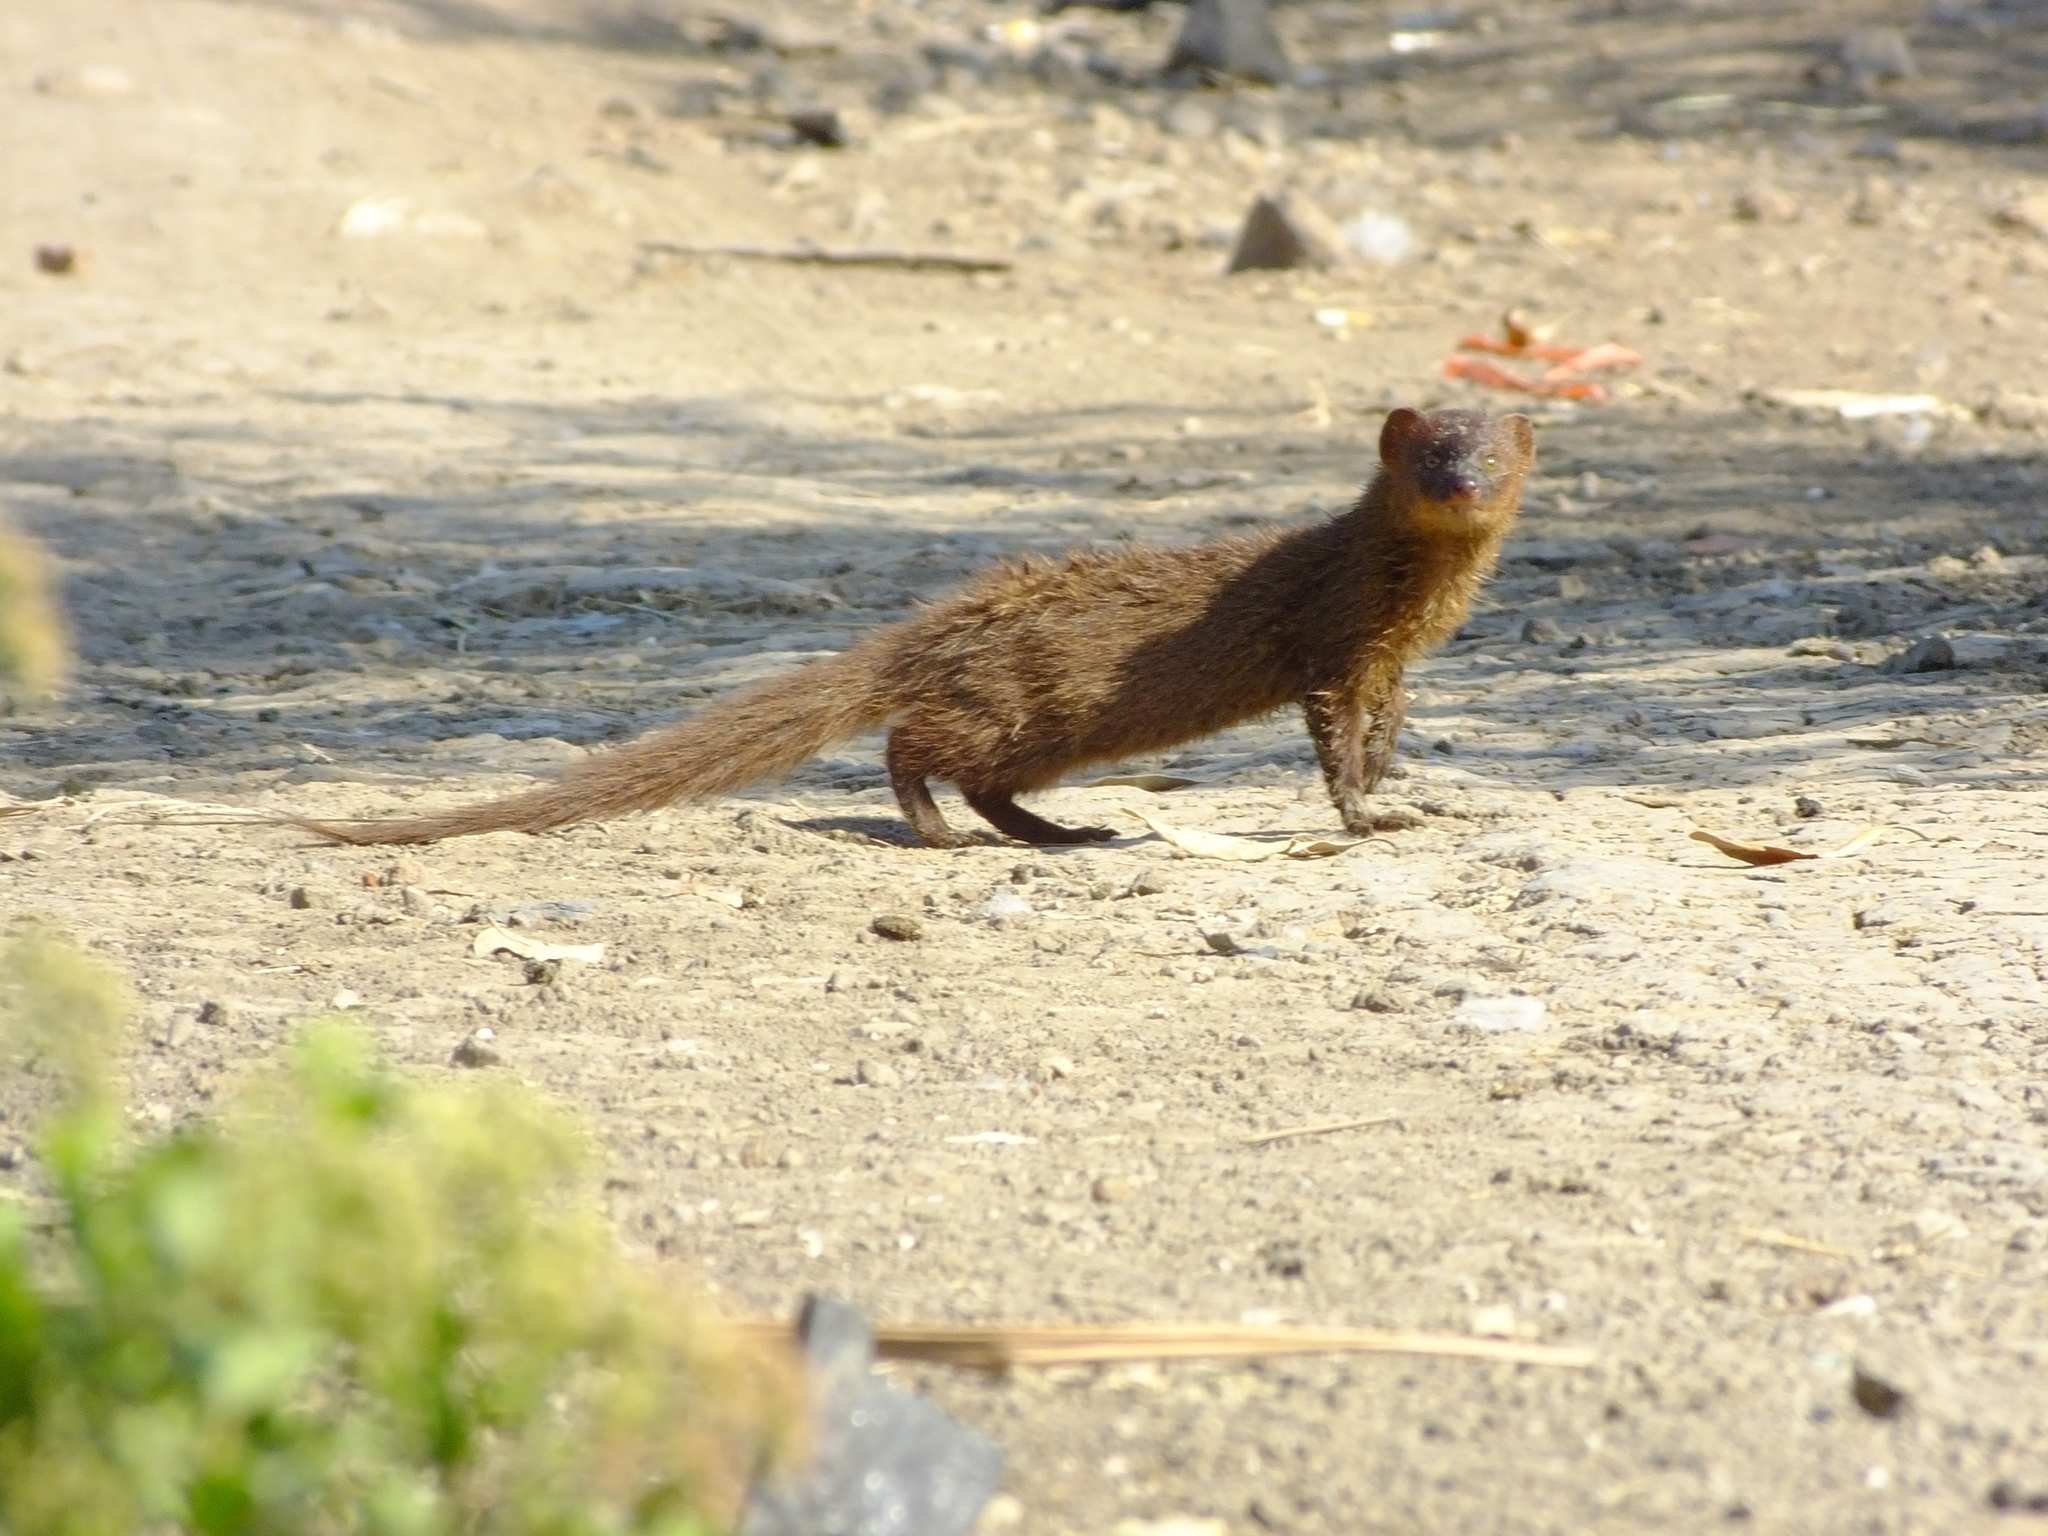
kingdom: Animalia
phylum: Chordata
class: Mammalia
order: Carnivora
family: Herpestidae
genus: Herpestes
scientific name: Herpestes javanicus
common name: Small asian mongoose
